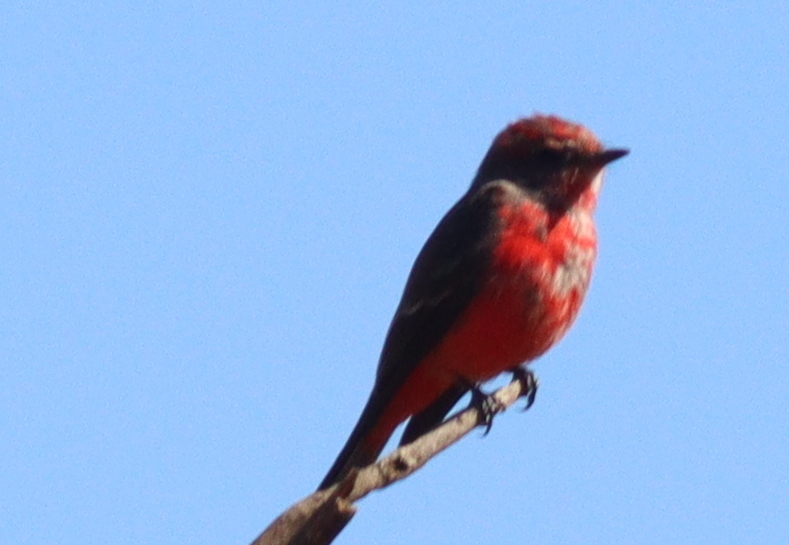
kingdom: Animalia
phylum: Chordata
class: Aves
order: Passeriformes
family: Tyrannidae
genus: Pyrocephalus
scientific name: Pyrocephalus rubinus
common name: Vermilion flycatcher
